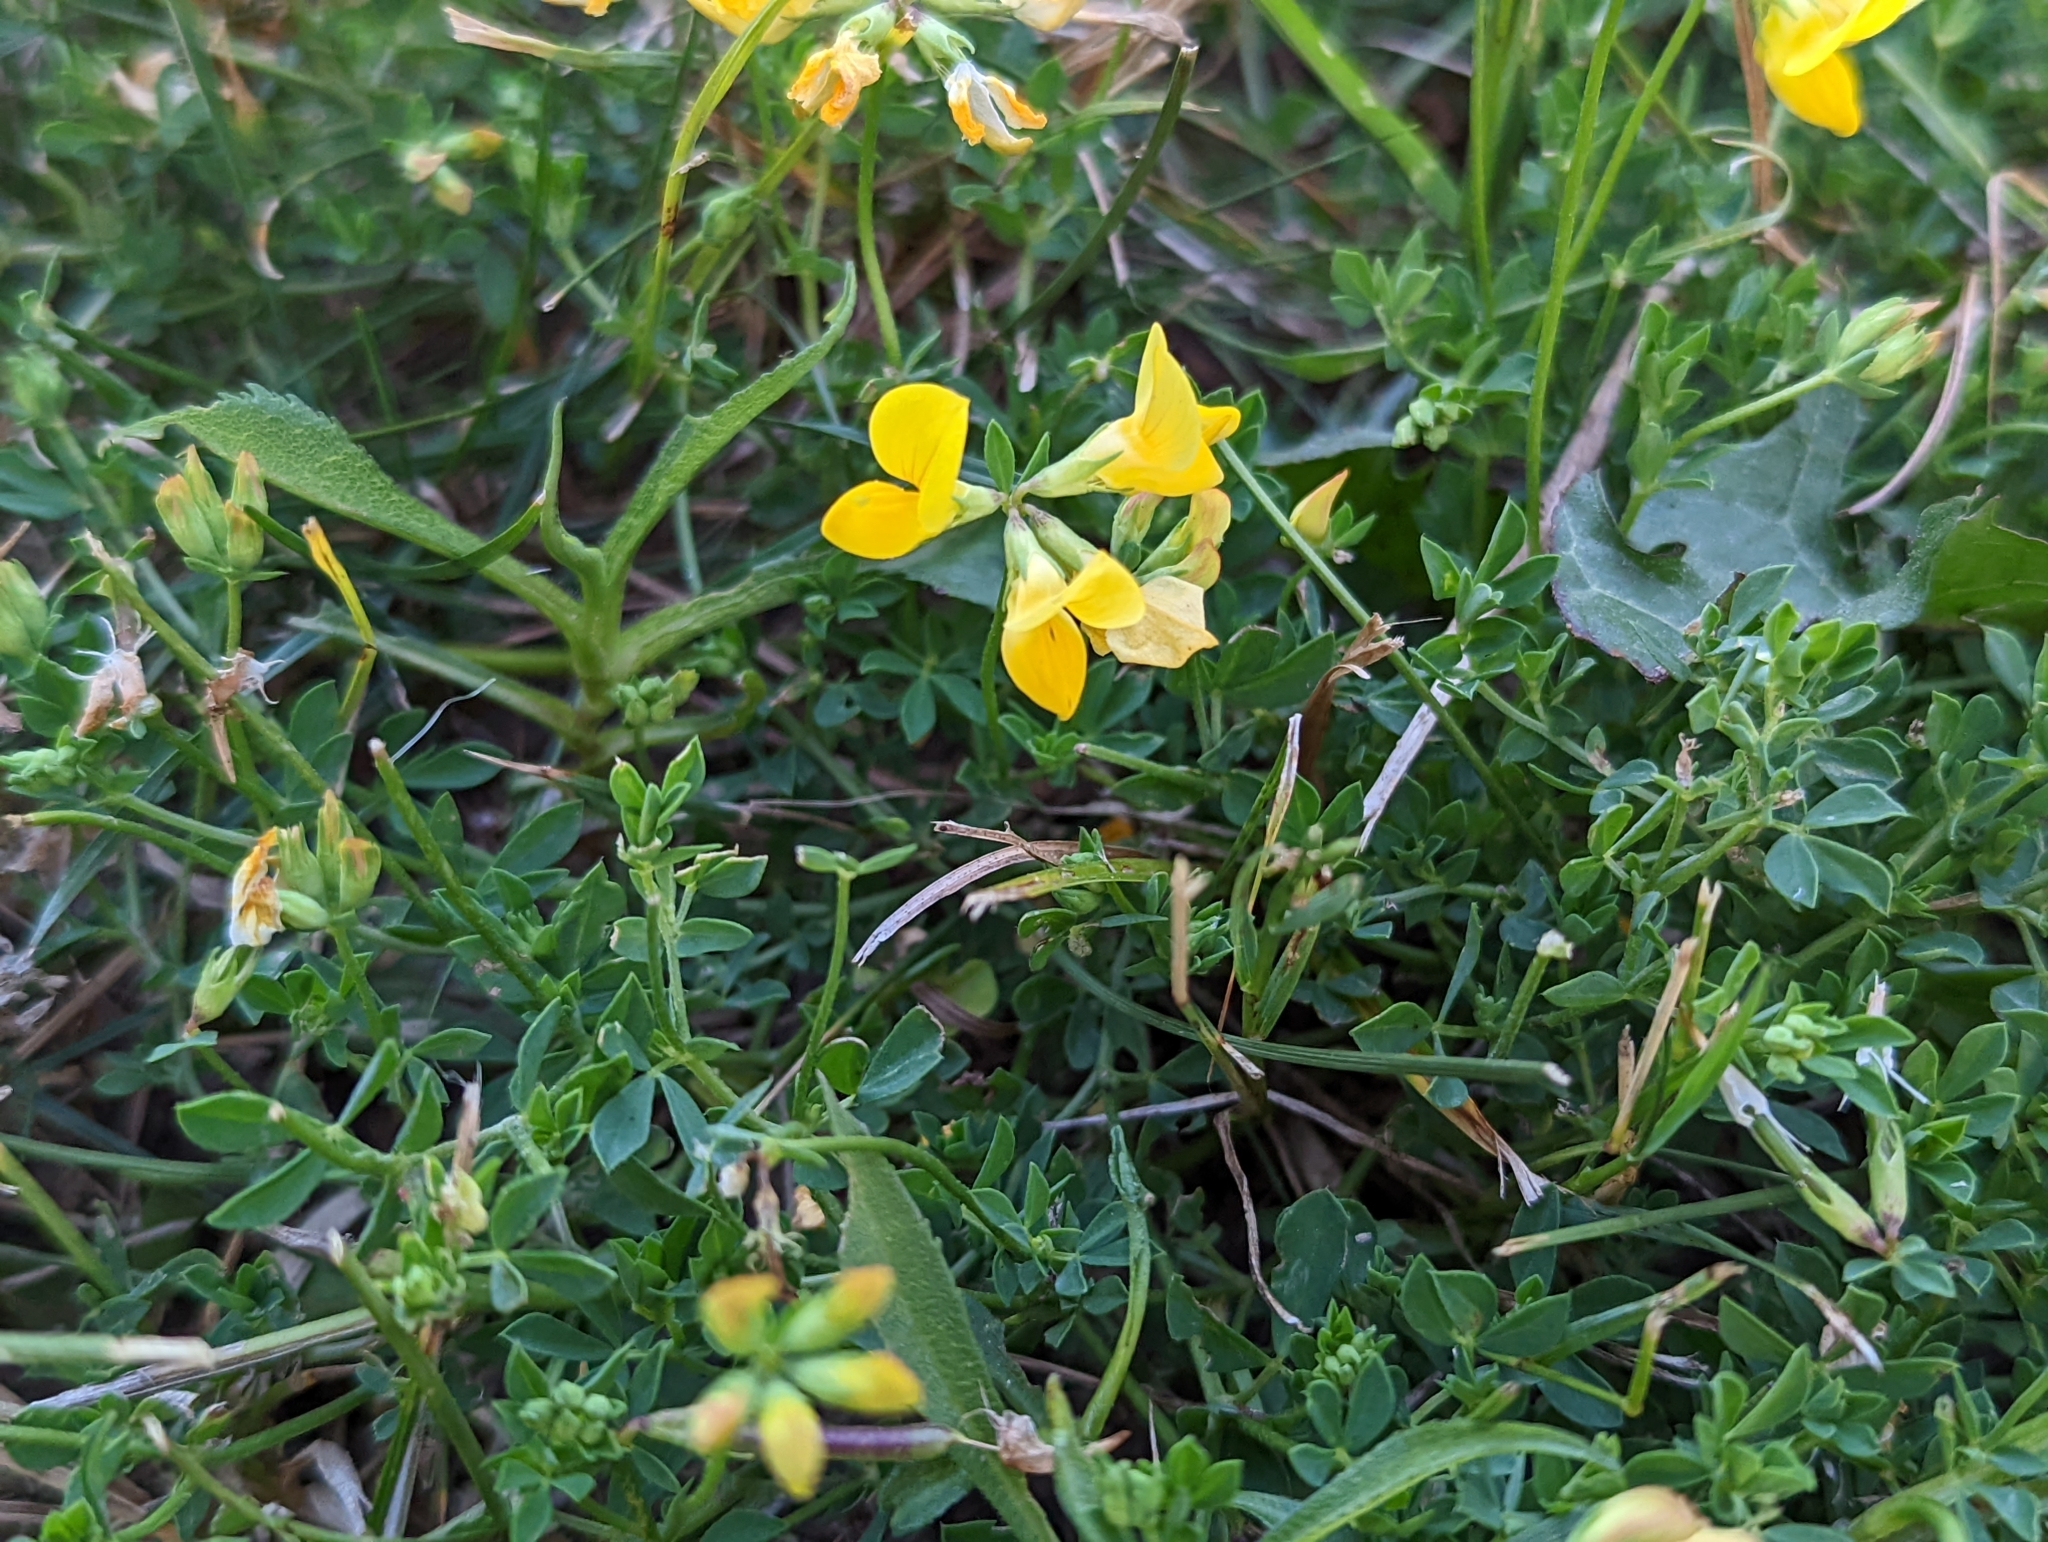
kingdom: Plantae
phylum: Tracheophyta
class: Magnoliopsida
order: Fabales
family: Fabaceae
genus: Lotus
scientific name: Lotus corniculatus
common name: Common bird's-foot-trefoil
